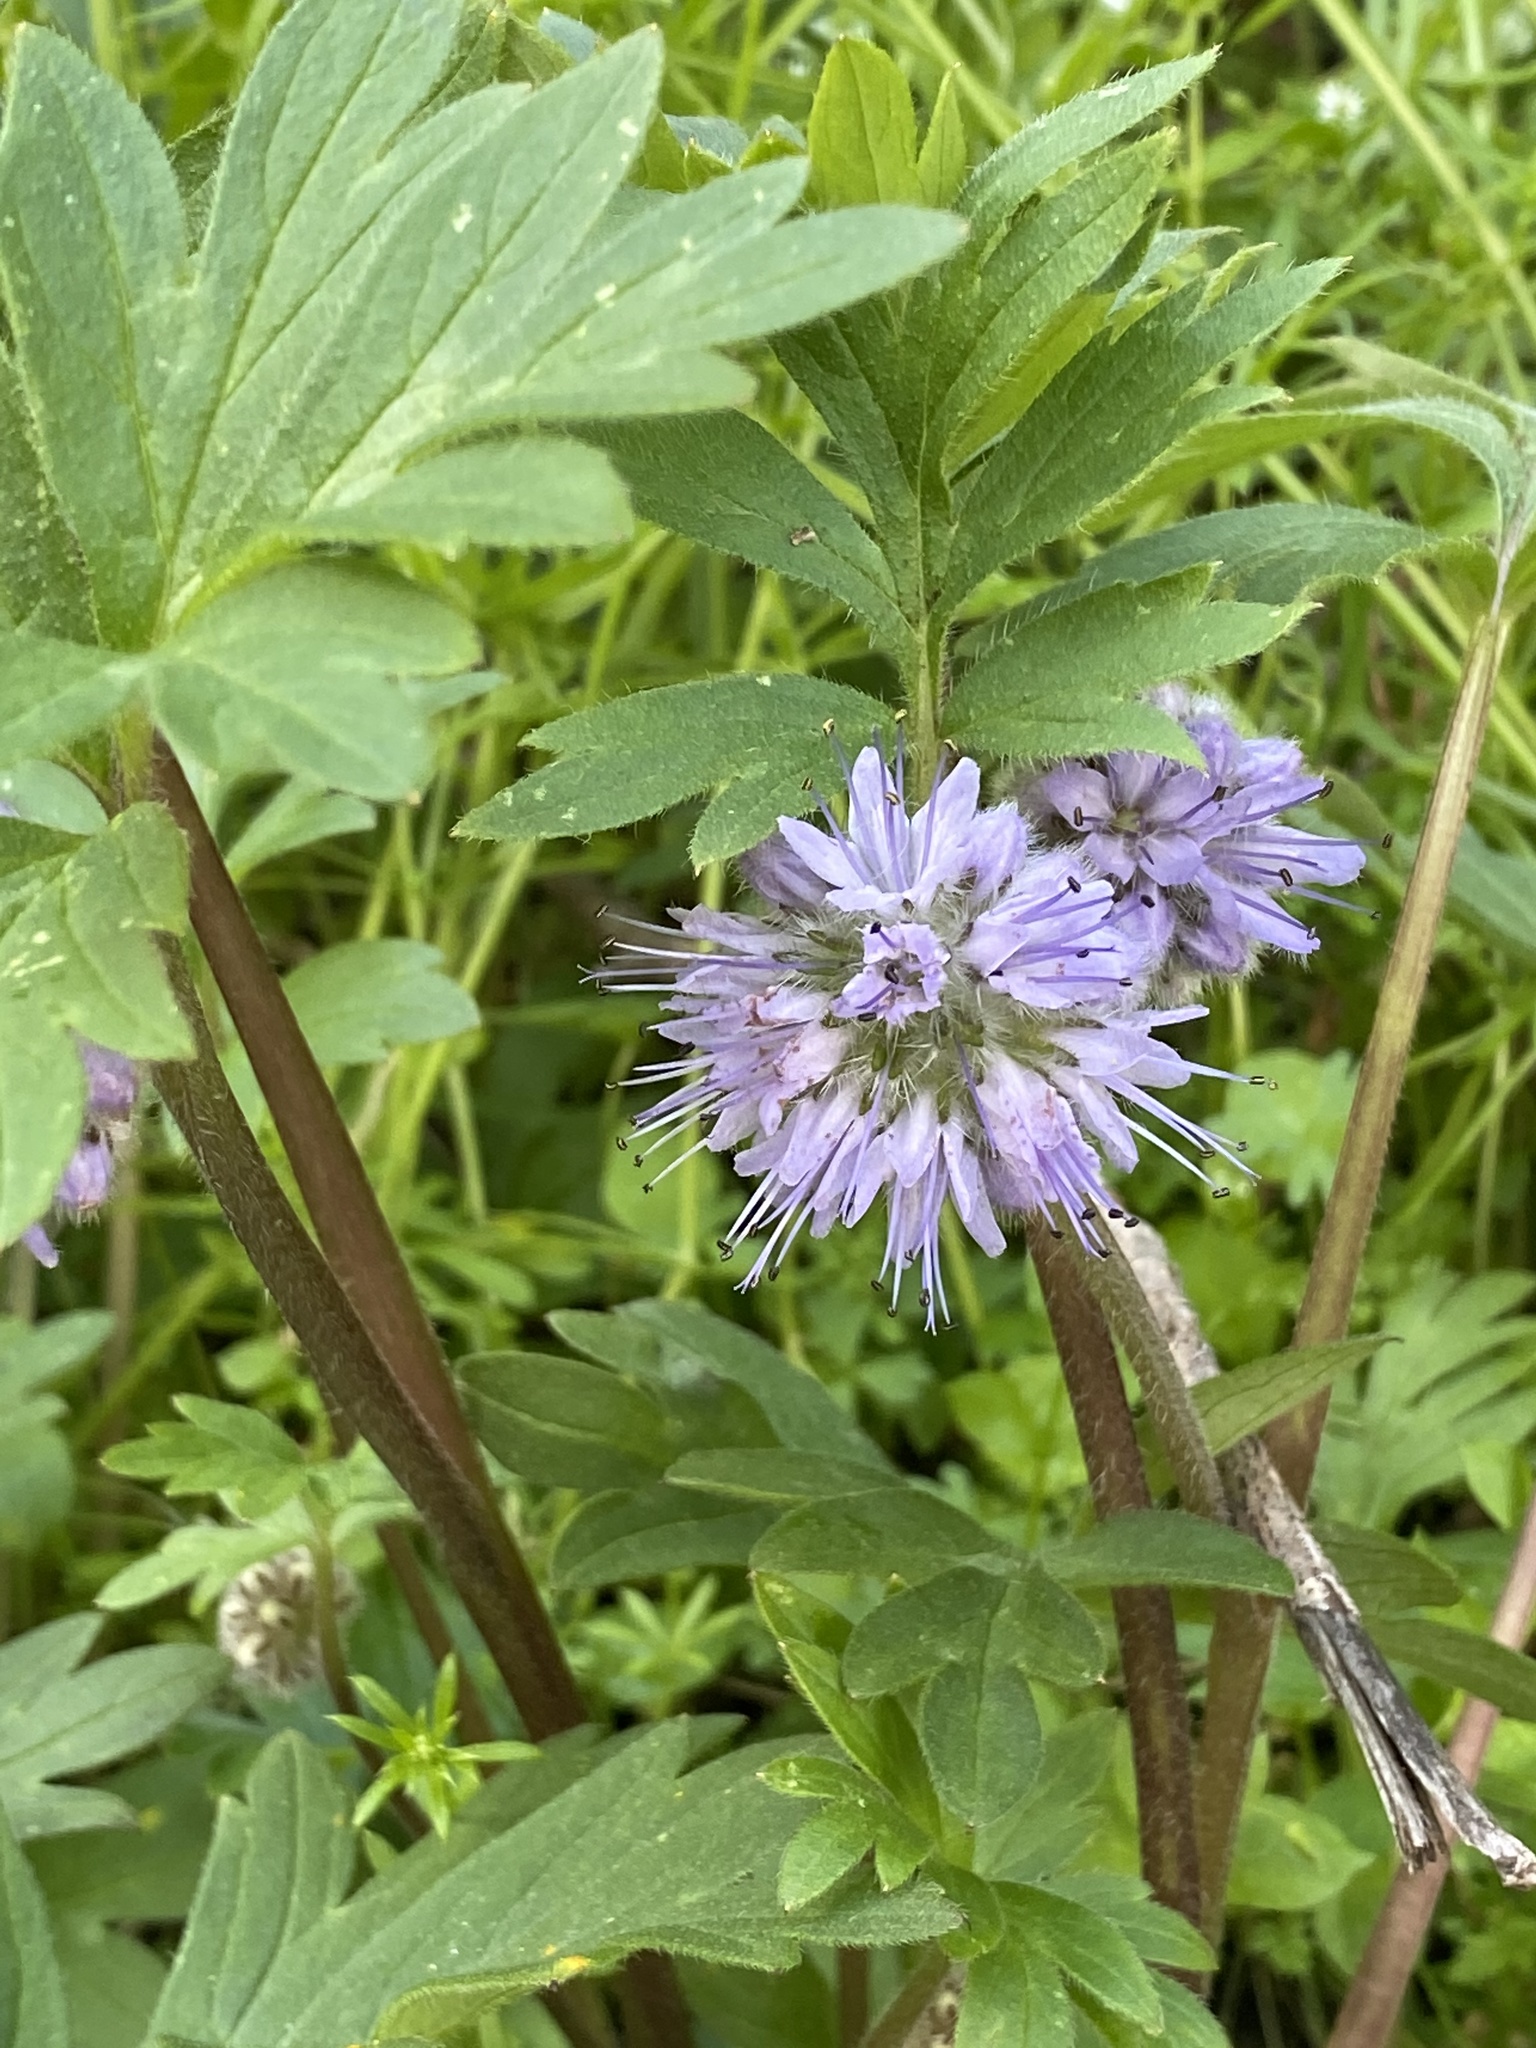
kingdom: Plantae
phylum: Tracheophyta
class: Magnoliopsida
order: Boraginales
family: Hydrophyllaceae
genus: Hydrophyllum
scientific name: Hydrophyllum capitatum
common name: Woollen-breeches
